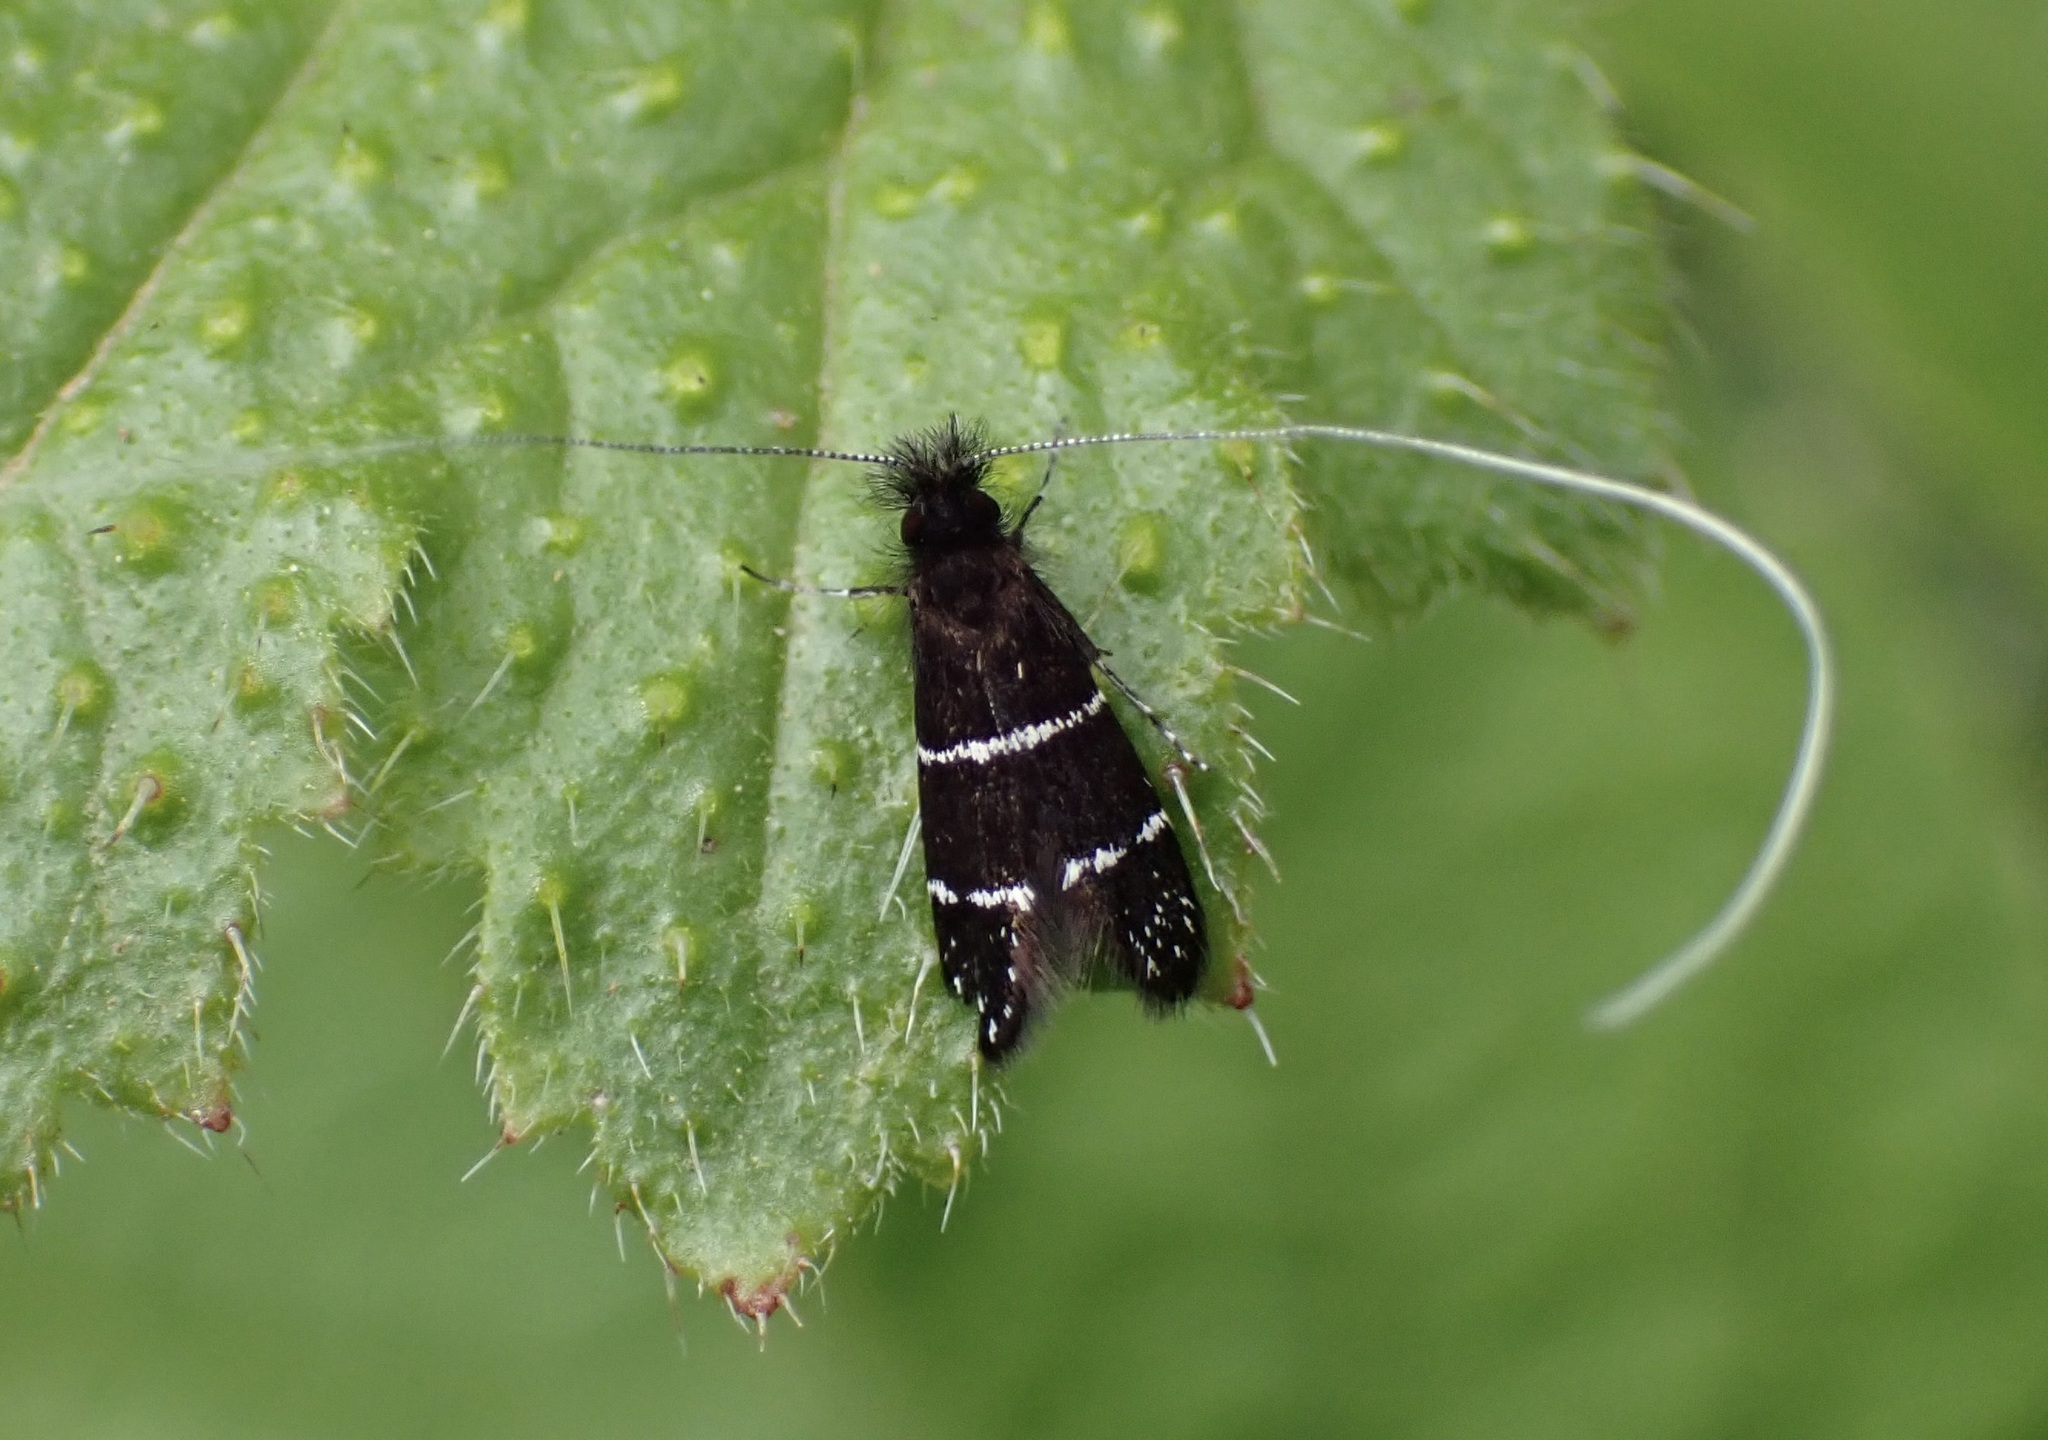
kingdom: Animalia
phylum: Arthropoda
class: Insecta
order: Lepidoptera
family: Adelidae
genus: Adela
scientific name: Adela septentrionella
